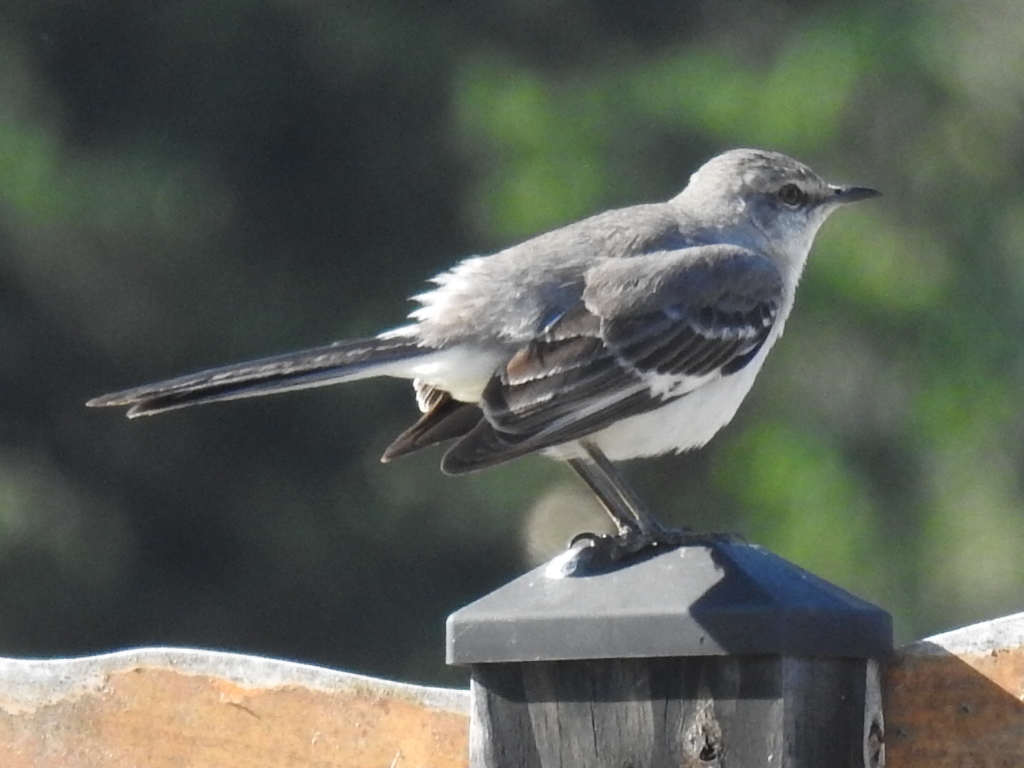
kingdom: Animalia
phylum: Chordata
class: Aves
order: Passeriformes
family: Mimidae
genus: Mimus
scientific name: Mimus polyglottos
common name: Northern mockingbird
